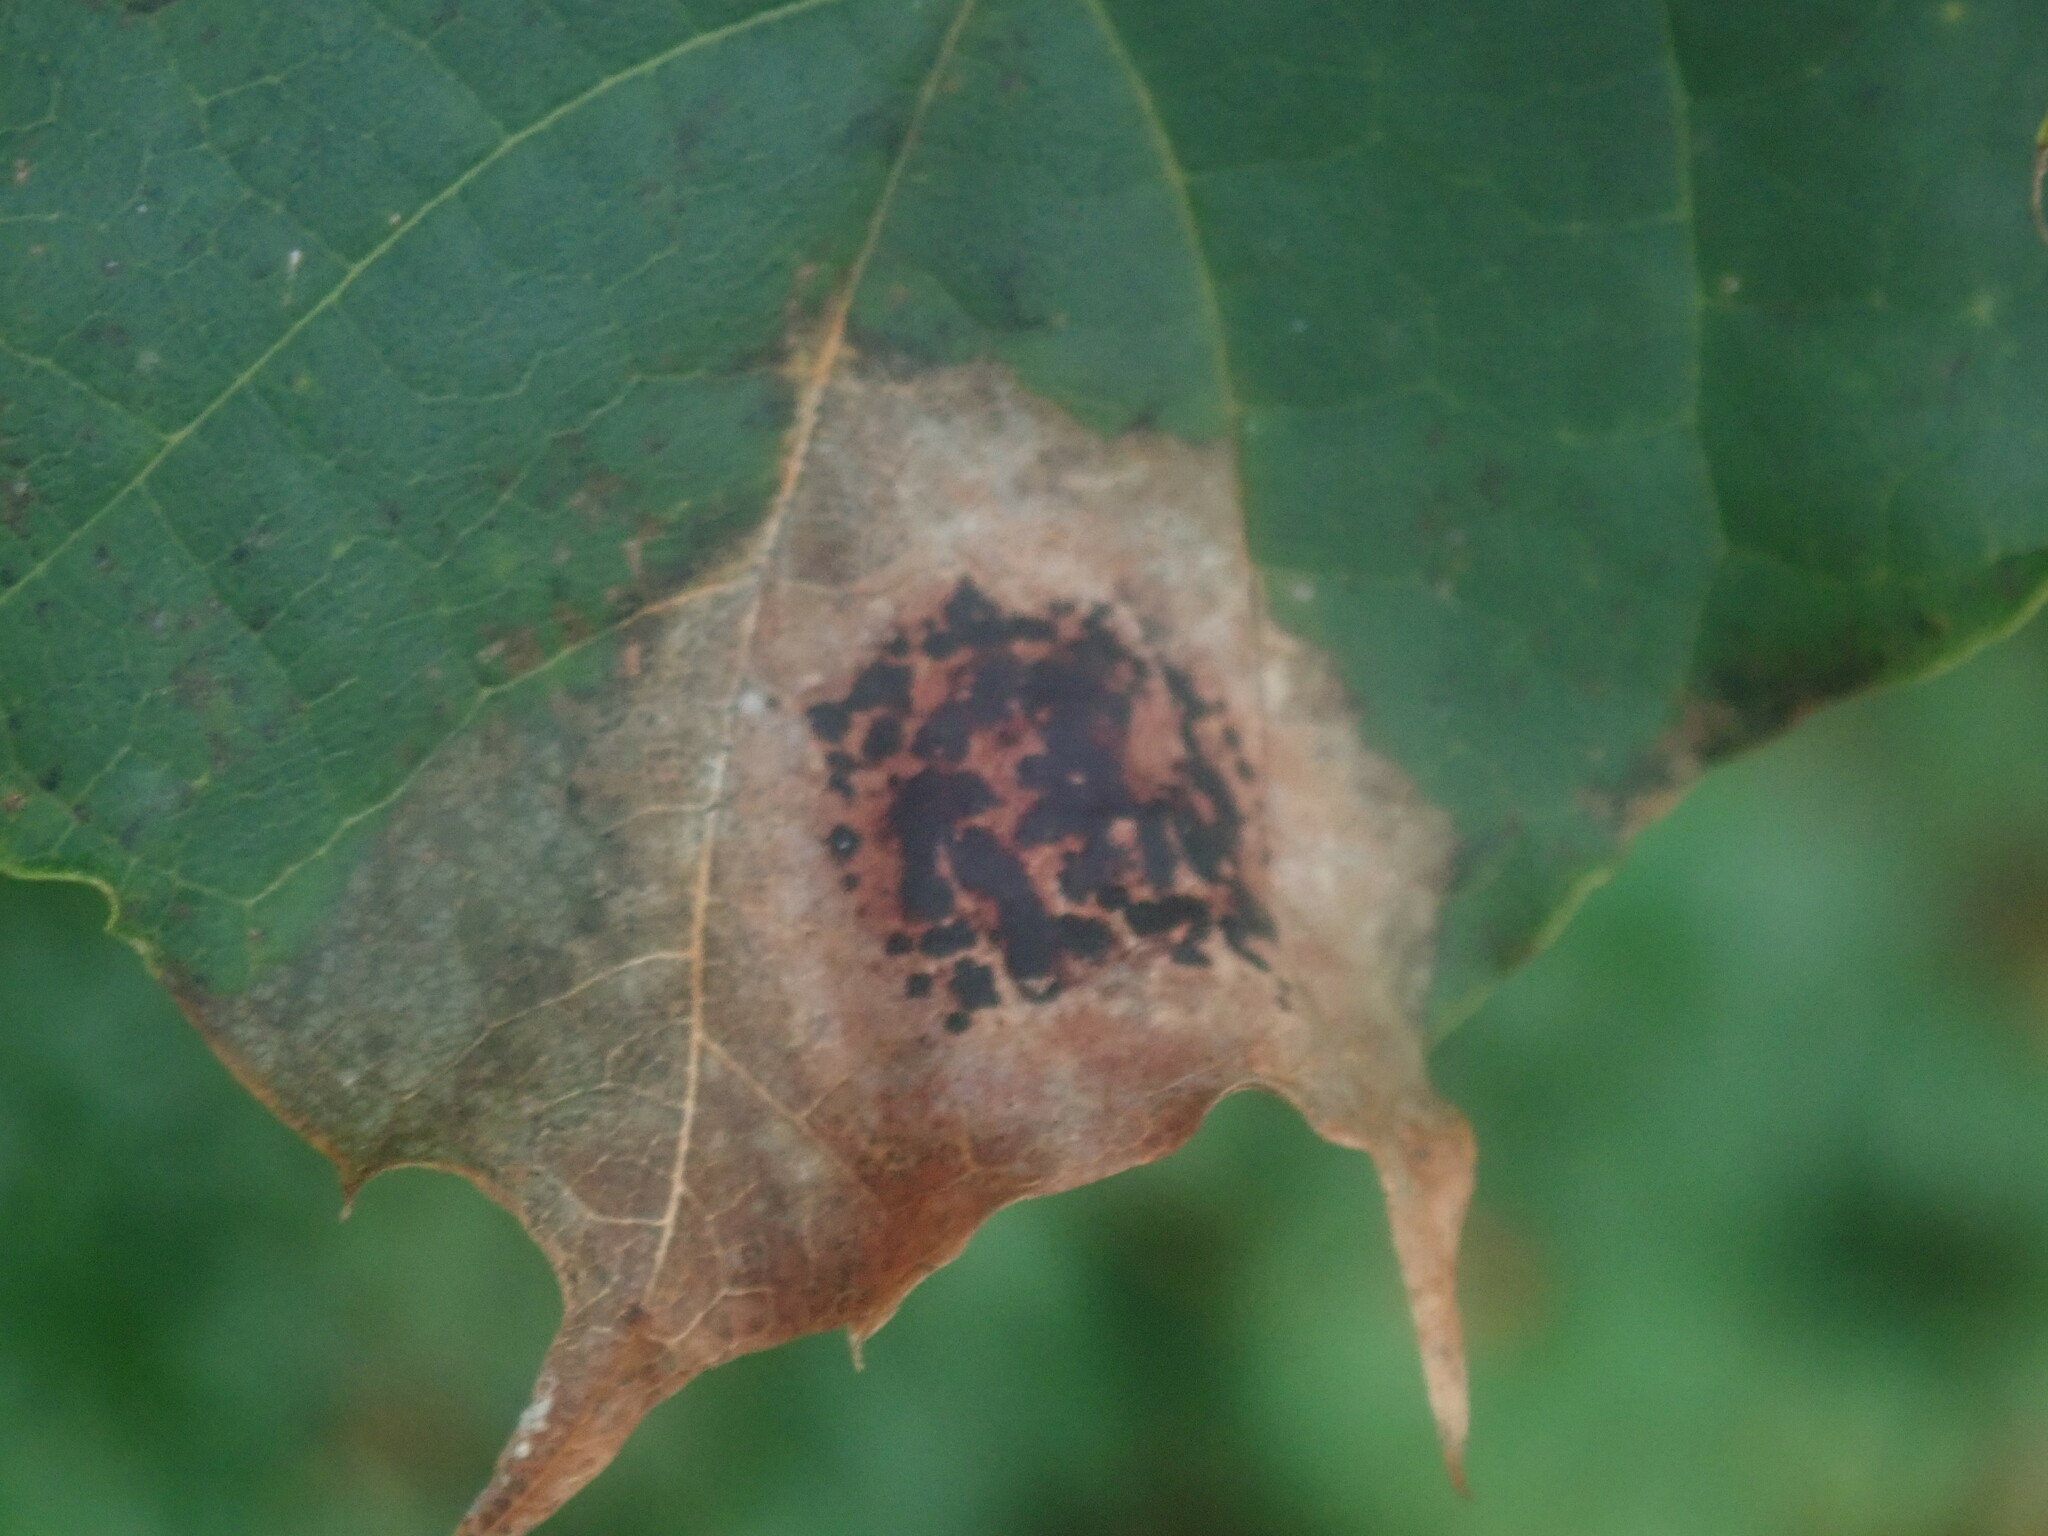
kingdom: Fungi
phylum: Ascomycota
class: Leotiomycetes
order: Rhytismatales
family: Rhytismataceae
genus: Rhytisma
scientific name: Rhytisma acerinum
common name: European tar spot
